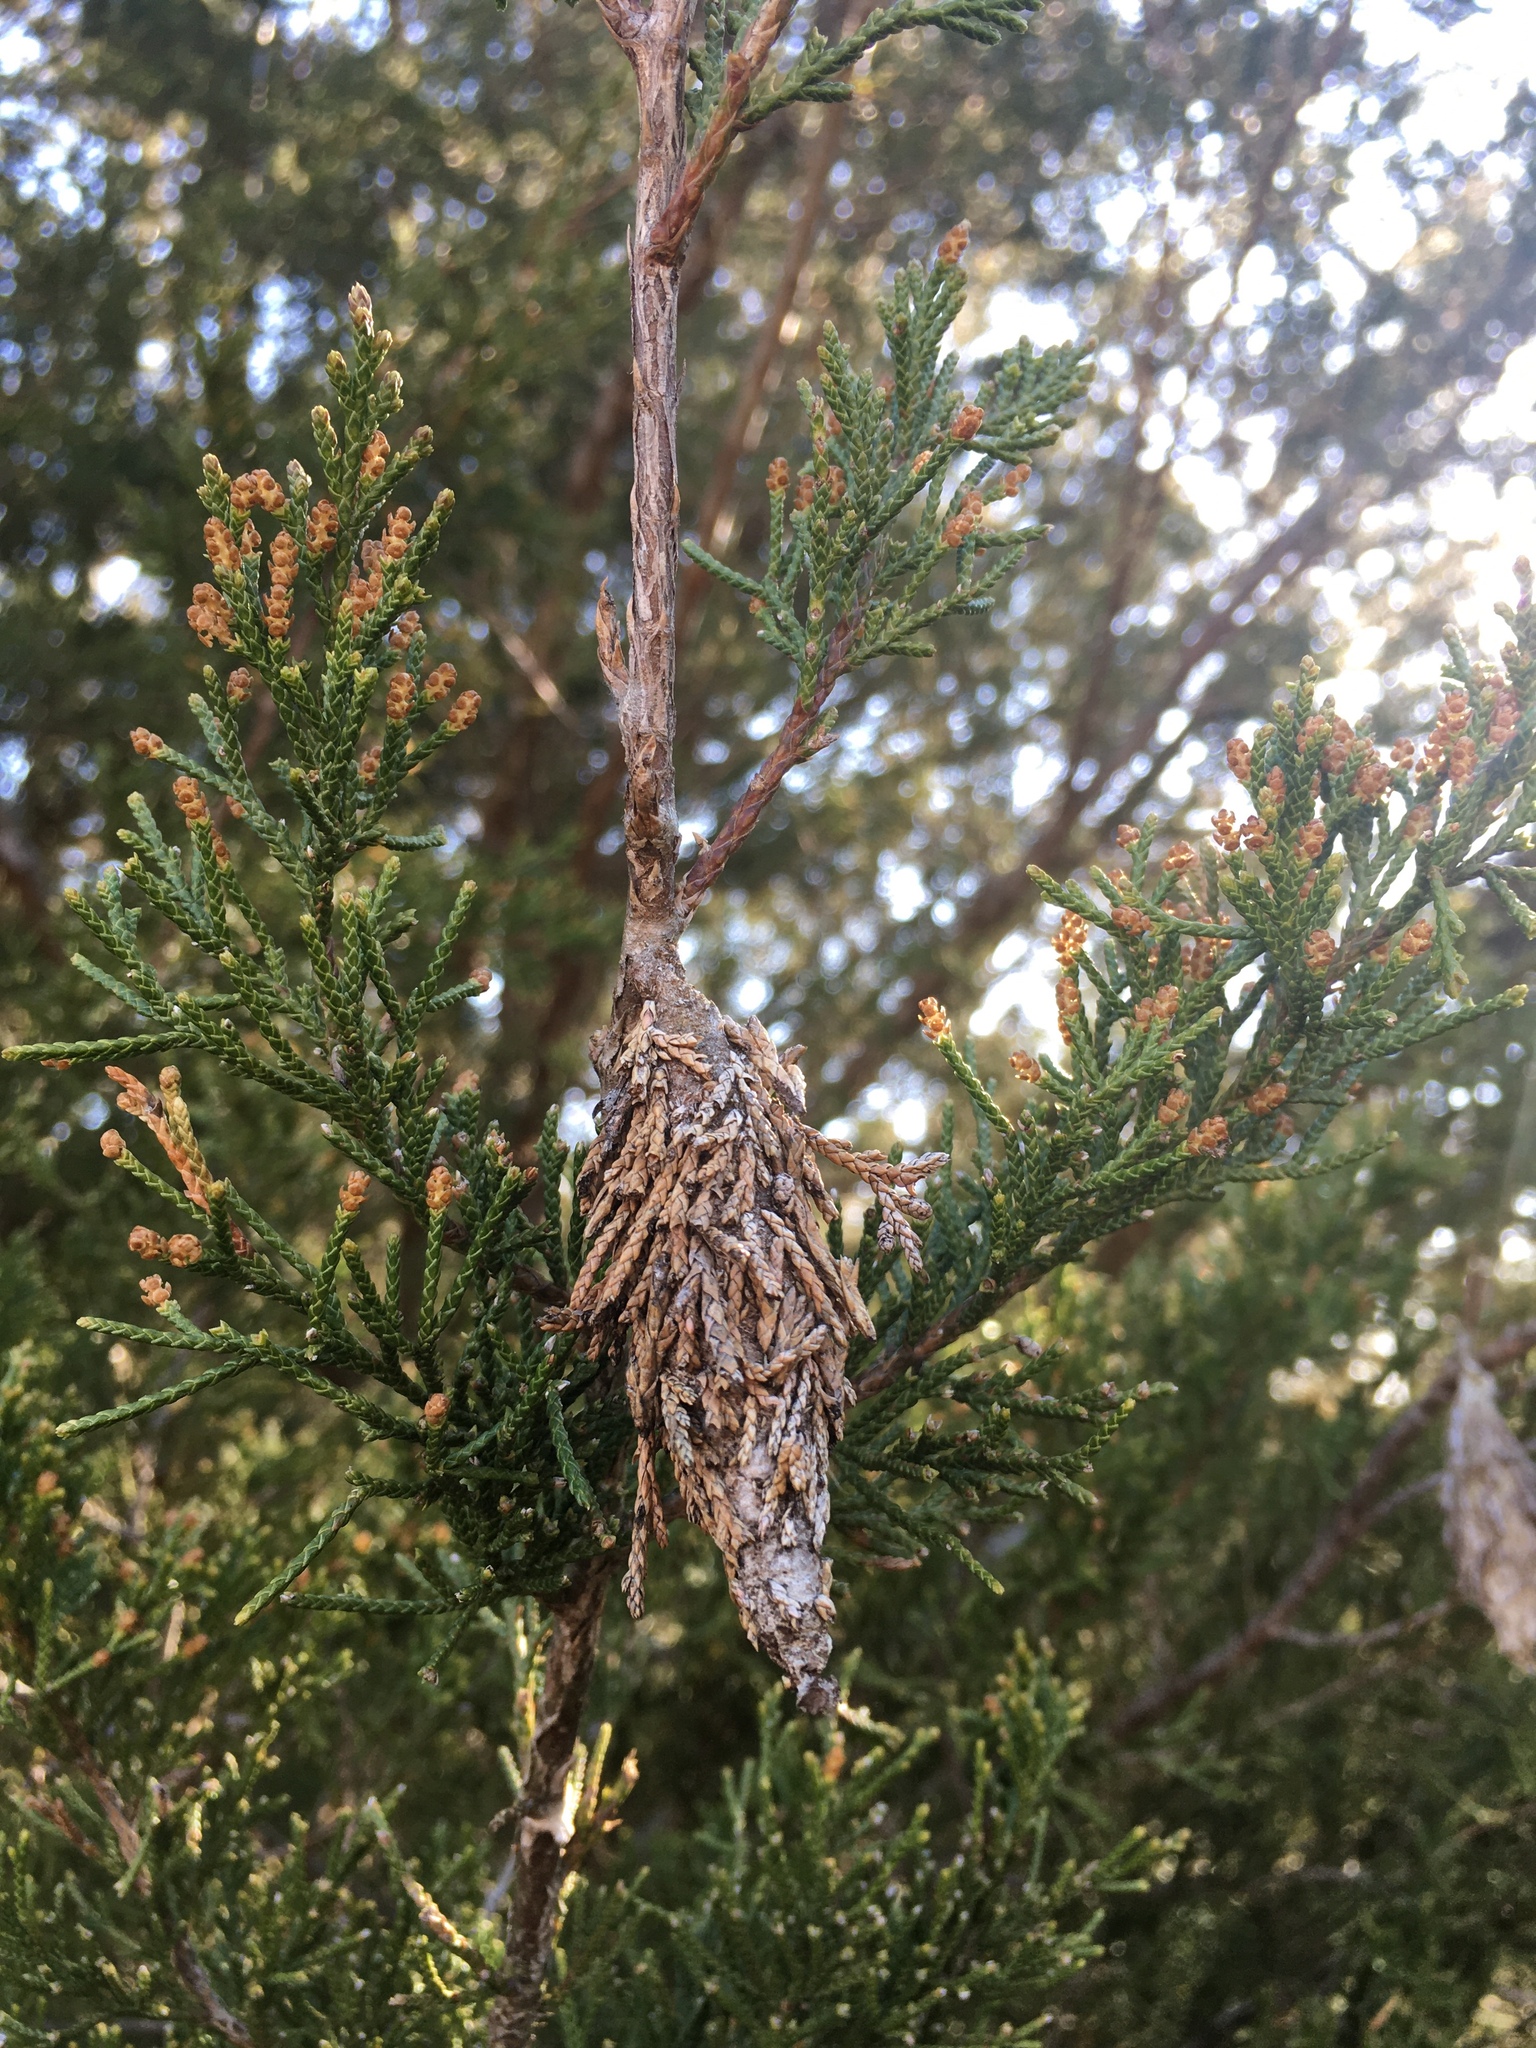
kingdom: Animalia
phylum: Arthropoda
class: Insecta
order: Lepidoptera
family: Psychidae
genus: Thyridopteryx
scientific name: Thyridopteryx ephemeraeformis
